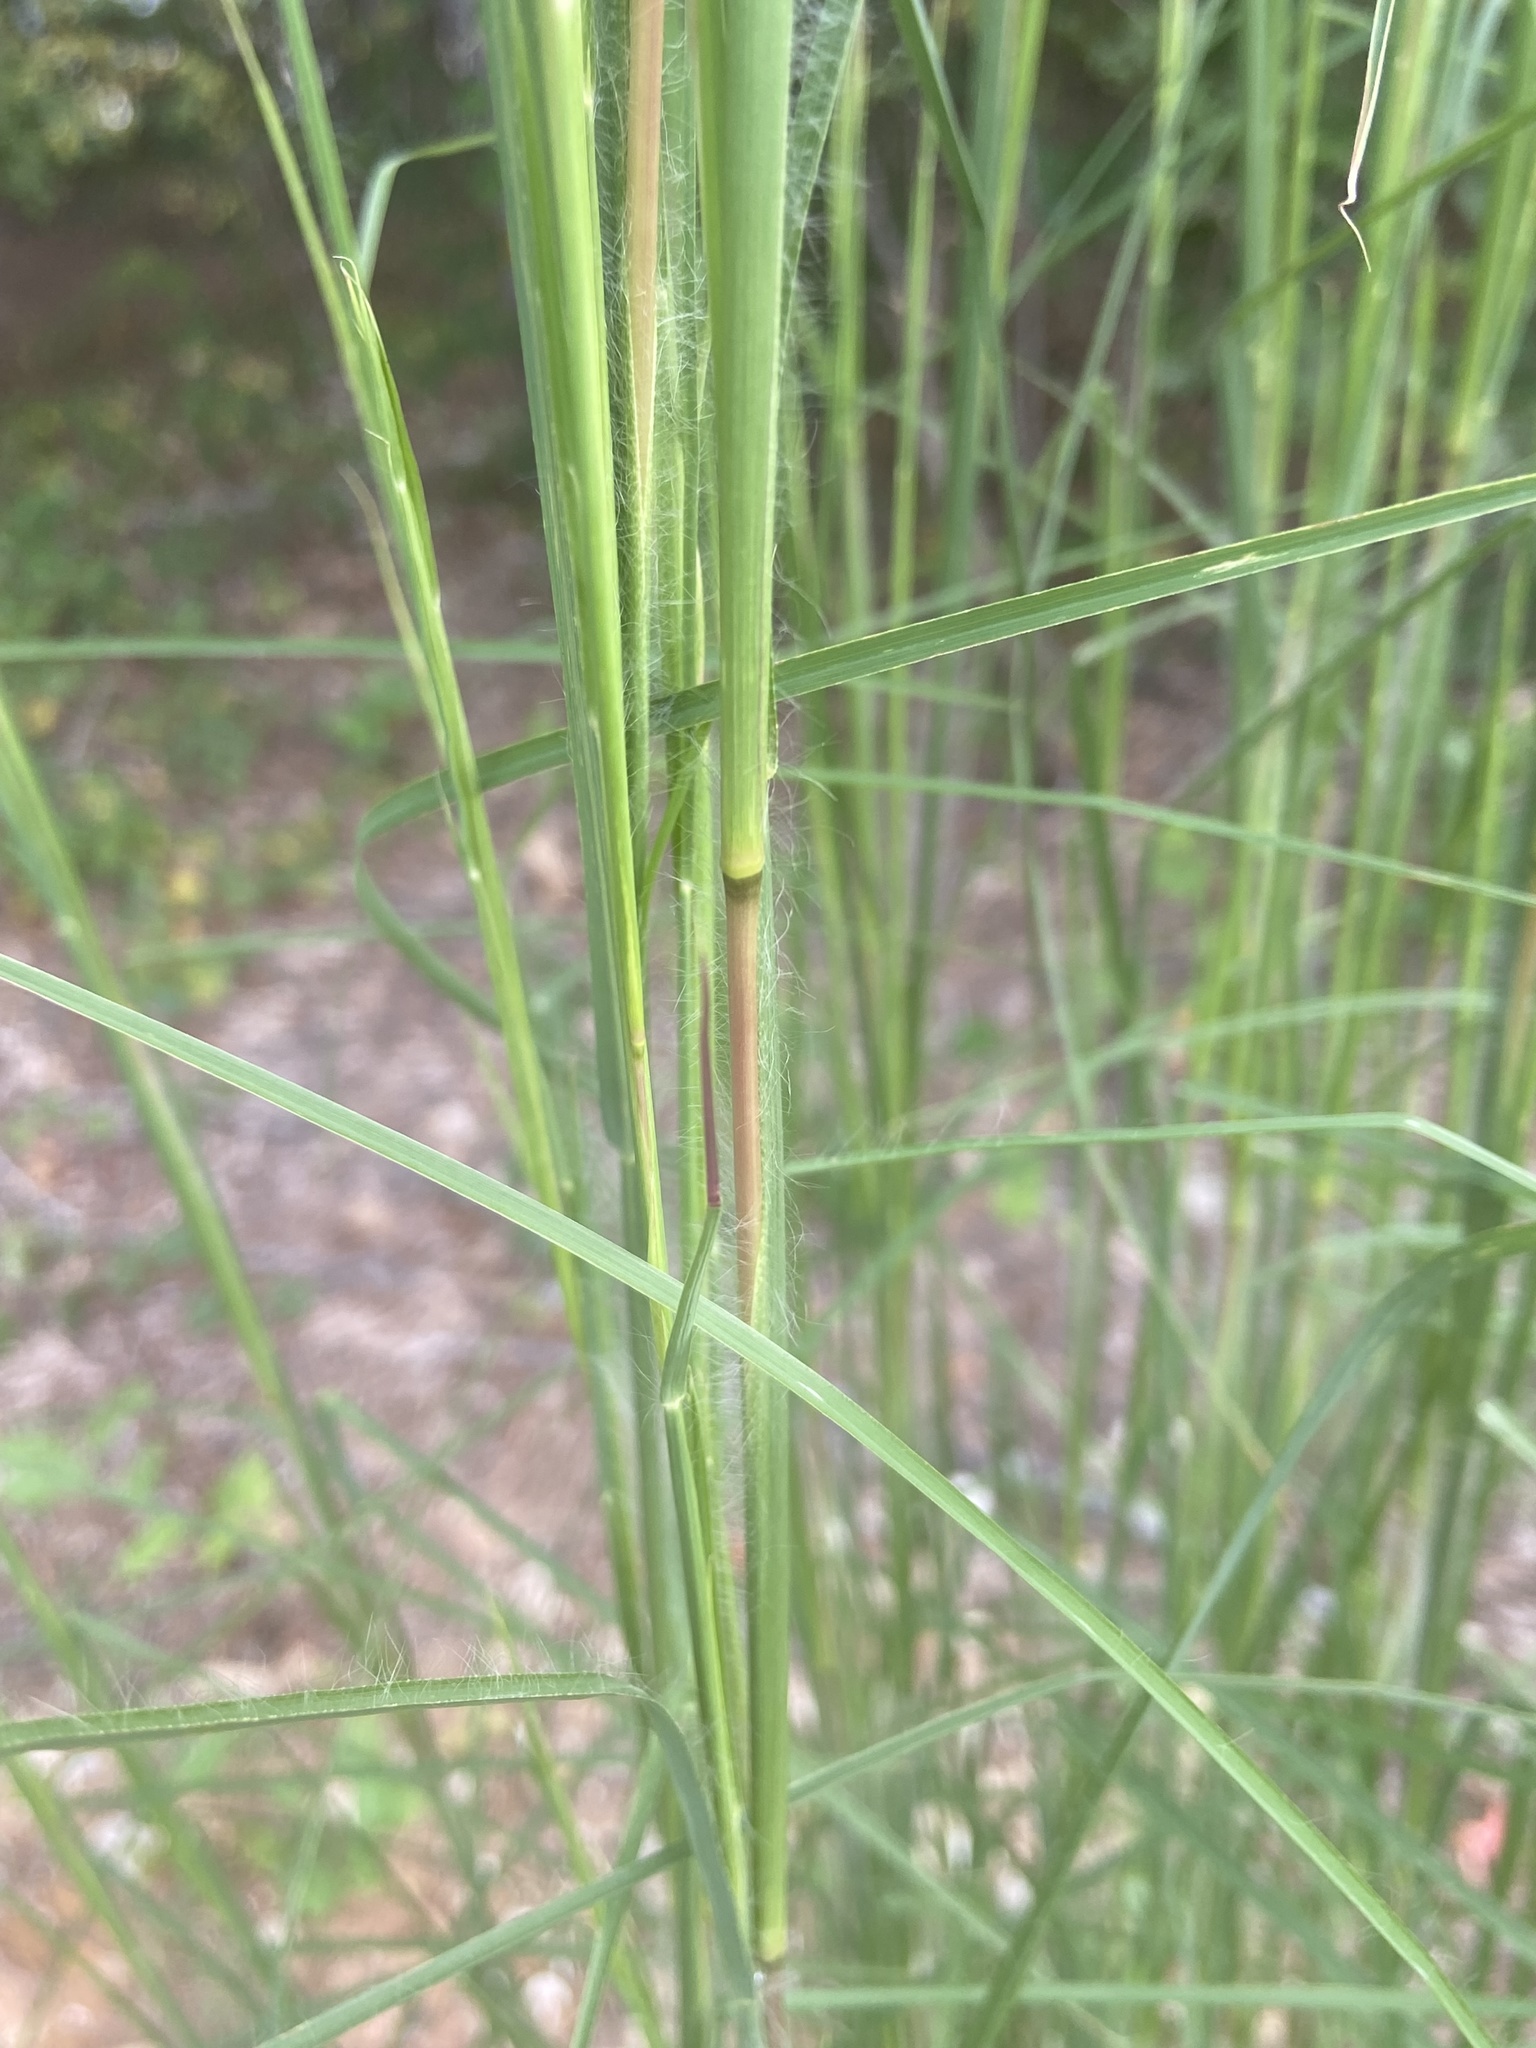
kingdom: Plantae
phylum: Tracheophyta
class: Liliopsida
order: Poales
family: Poaceae
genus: Andropogon
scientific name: Andropogon virginicus
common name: Broomsedge bluestem
